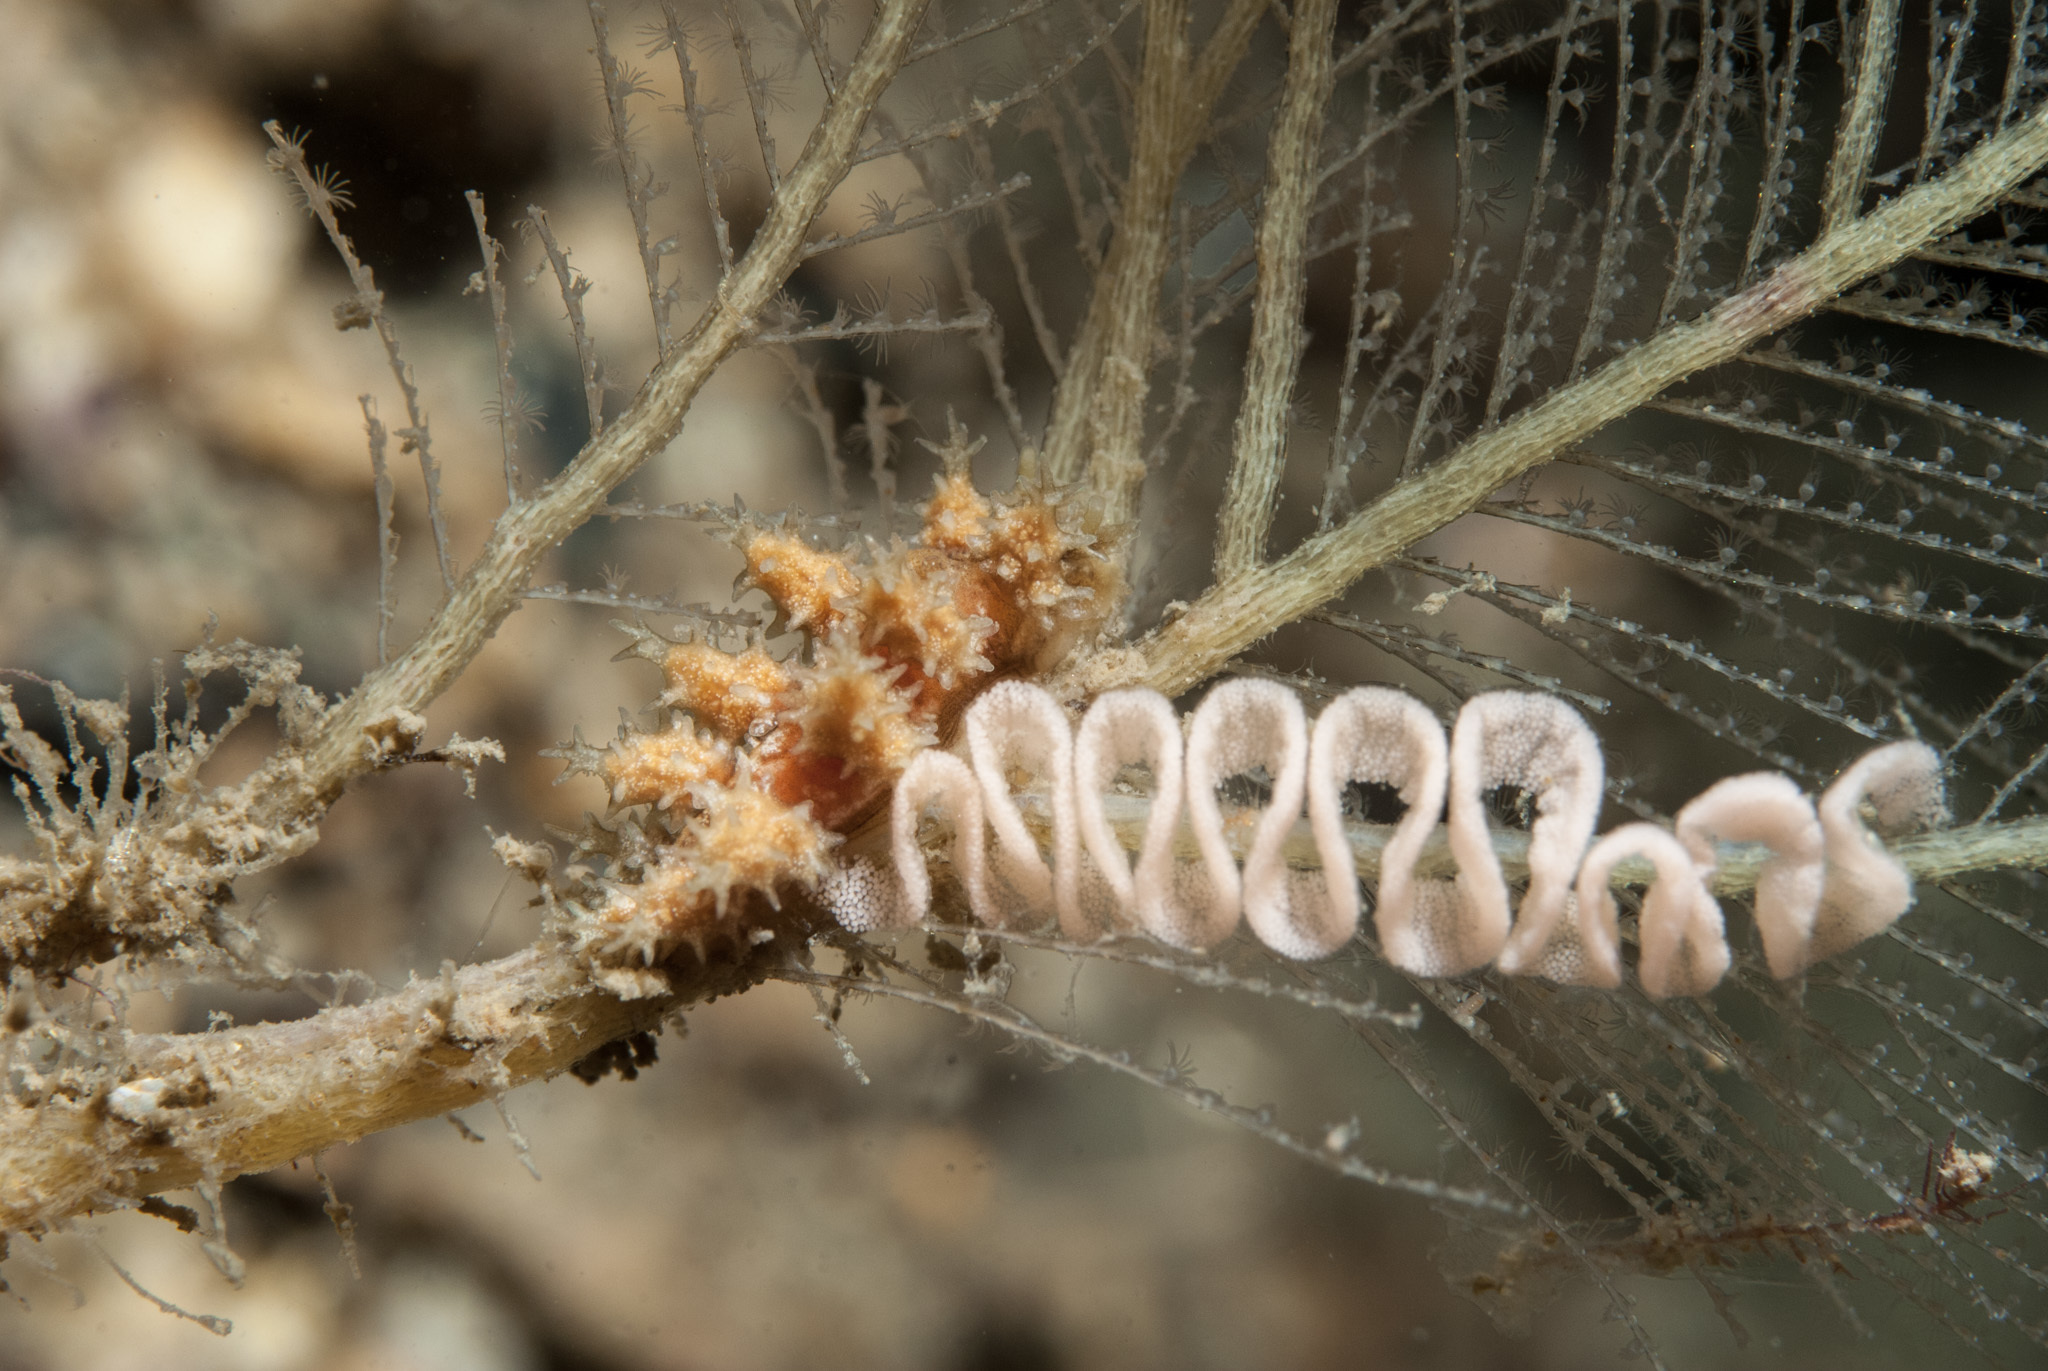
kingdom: Animalia
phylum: Mollusca
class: Gastropoda
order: Nudibranchia
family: Dotidae
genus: Doto
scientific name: Doto hystrix
